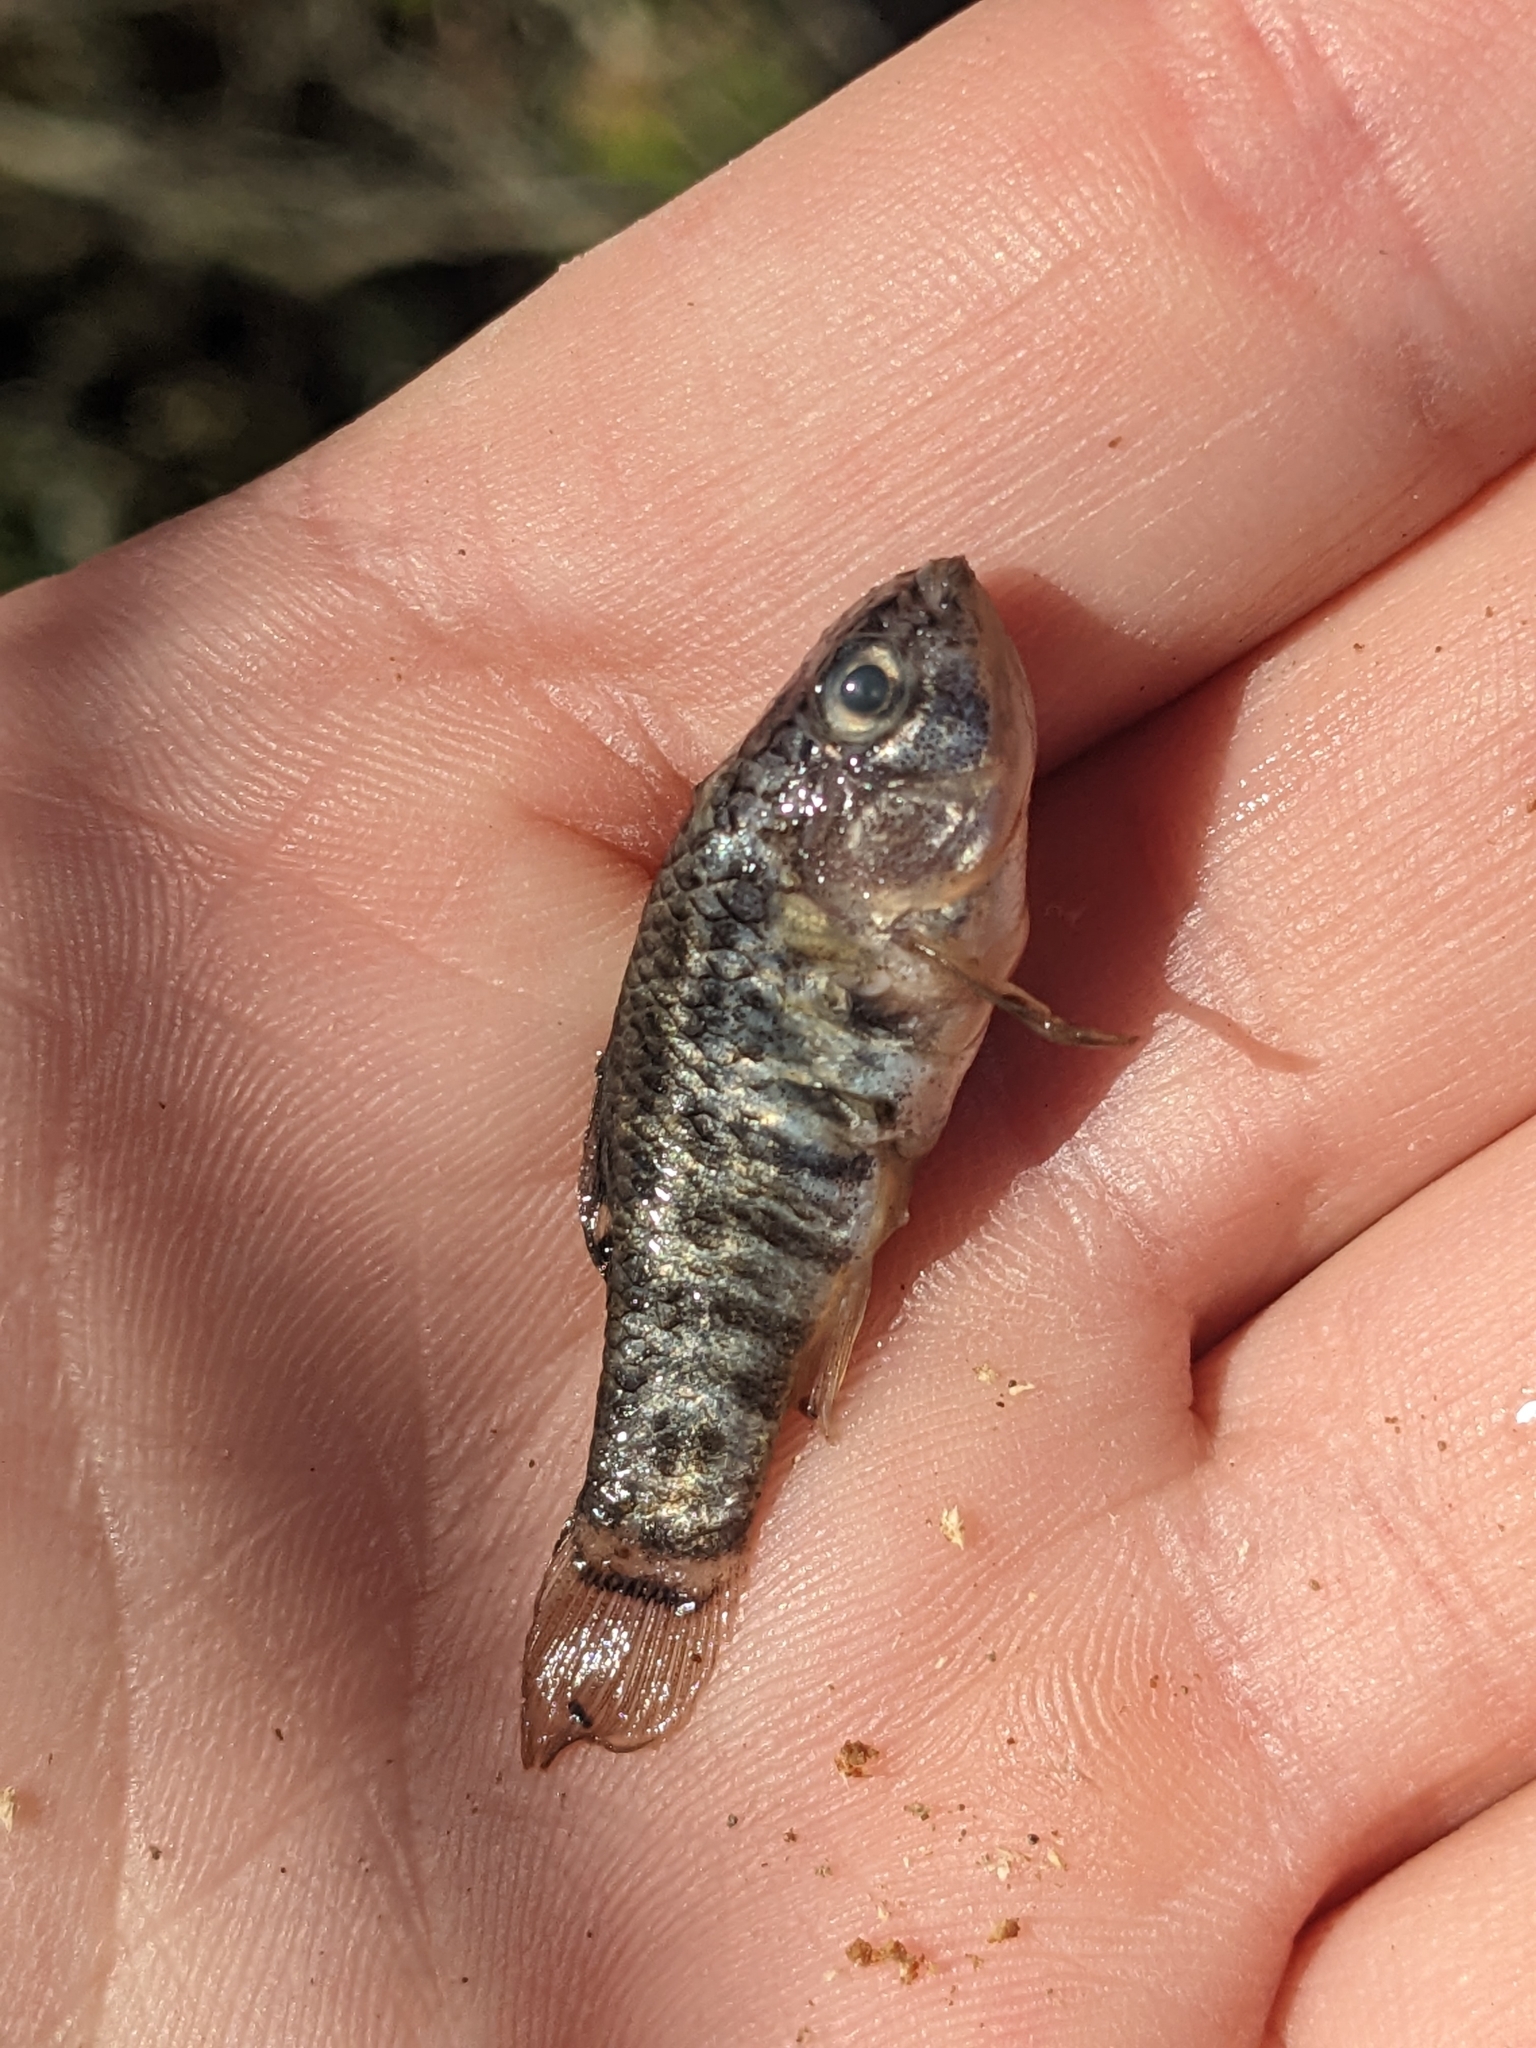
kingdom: Animalia
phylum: Chordata
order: Cyprinodontiformes
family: Cyprinodontidae
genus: Cyprinodon
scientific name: Cyprinodon variegatus
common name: Sheepshead minnow
